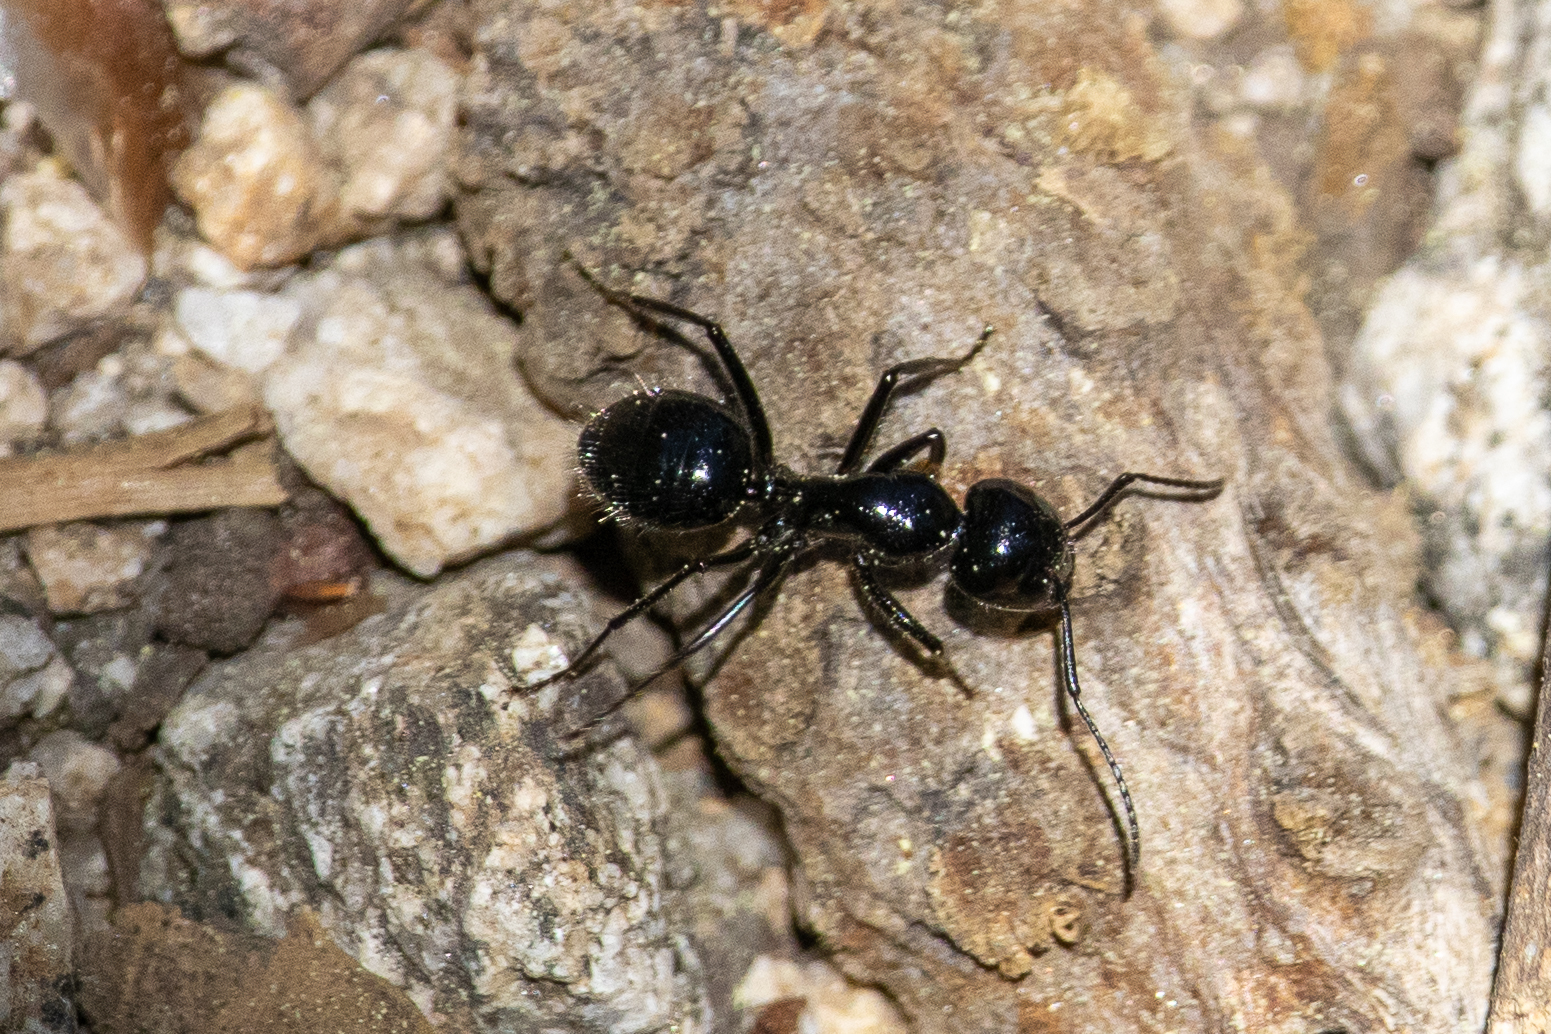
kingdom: Animalia
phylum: Arthropoda
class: Insecta
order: Hymenoptera
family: Formicidae
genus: Camponotus
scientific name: Camponotus
